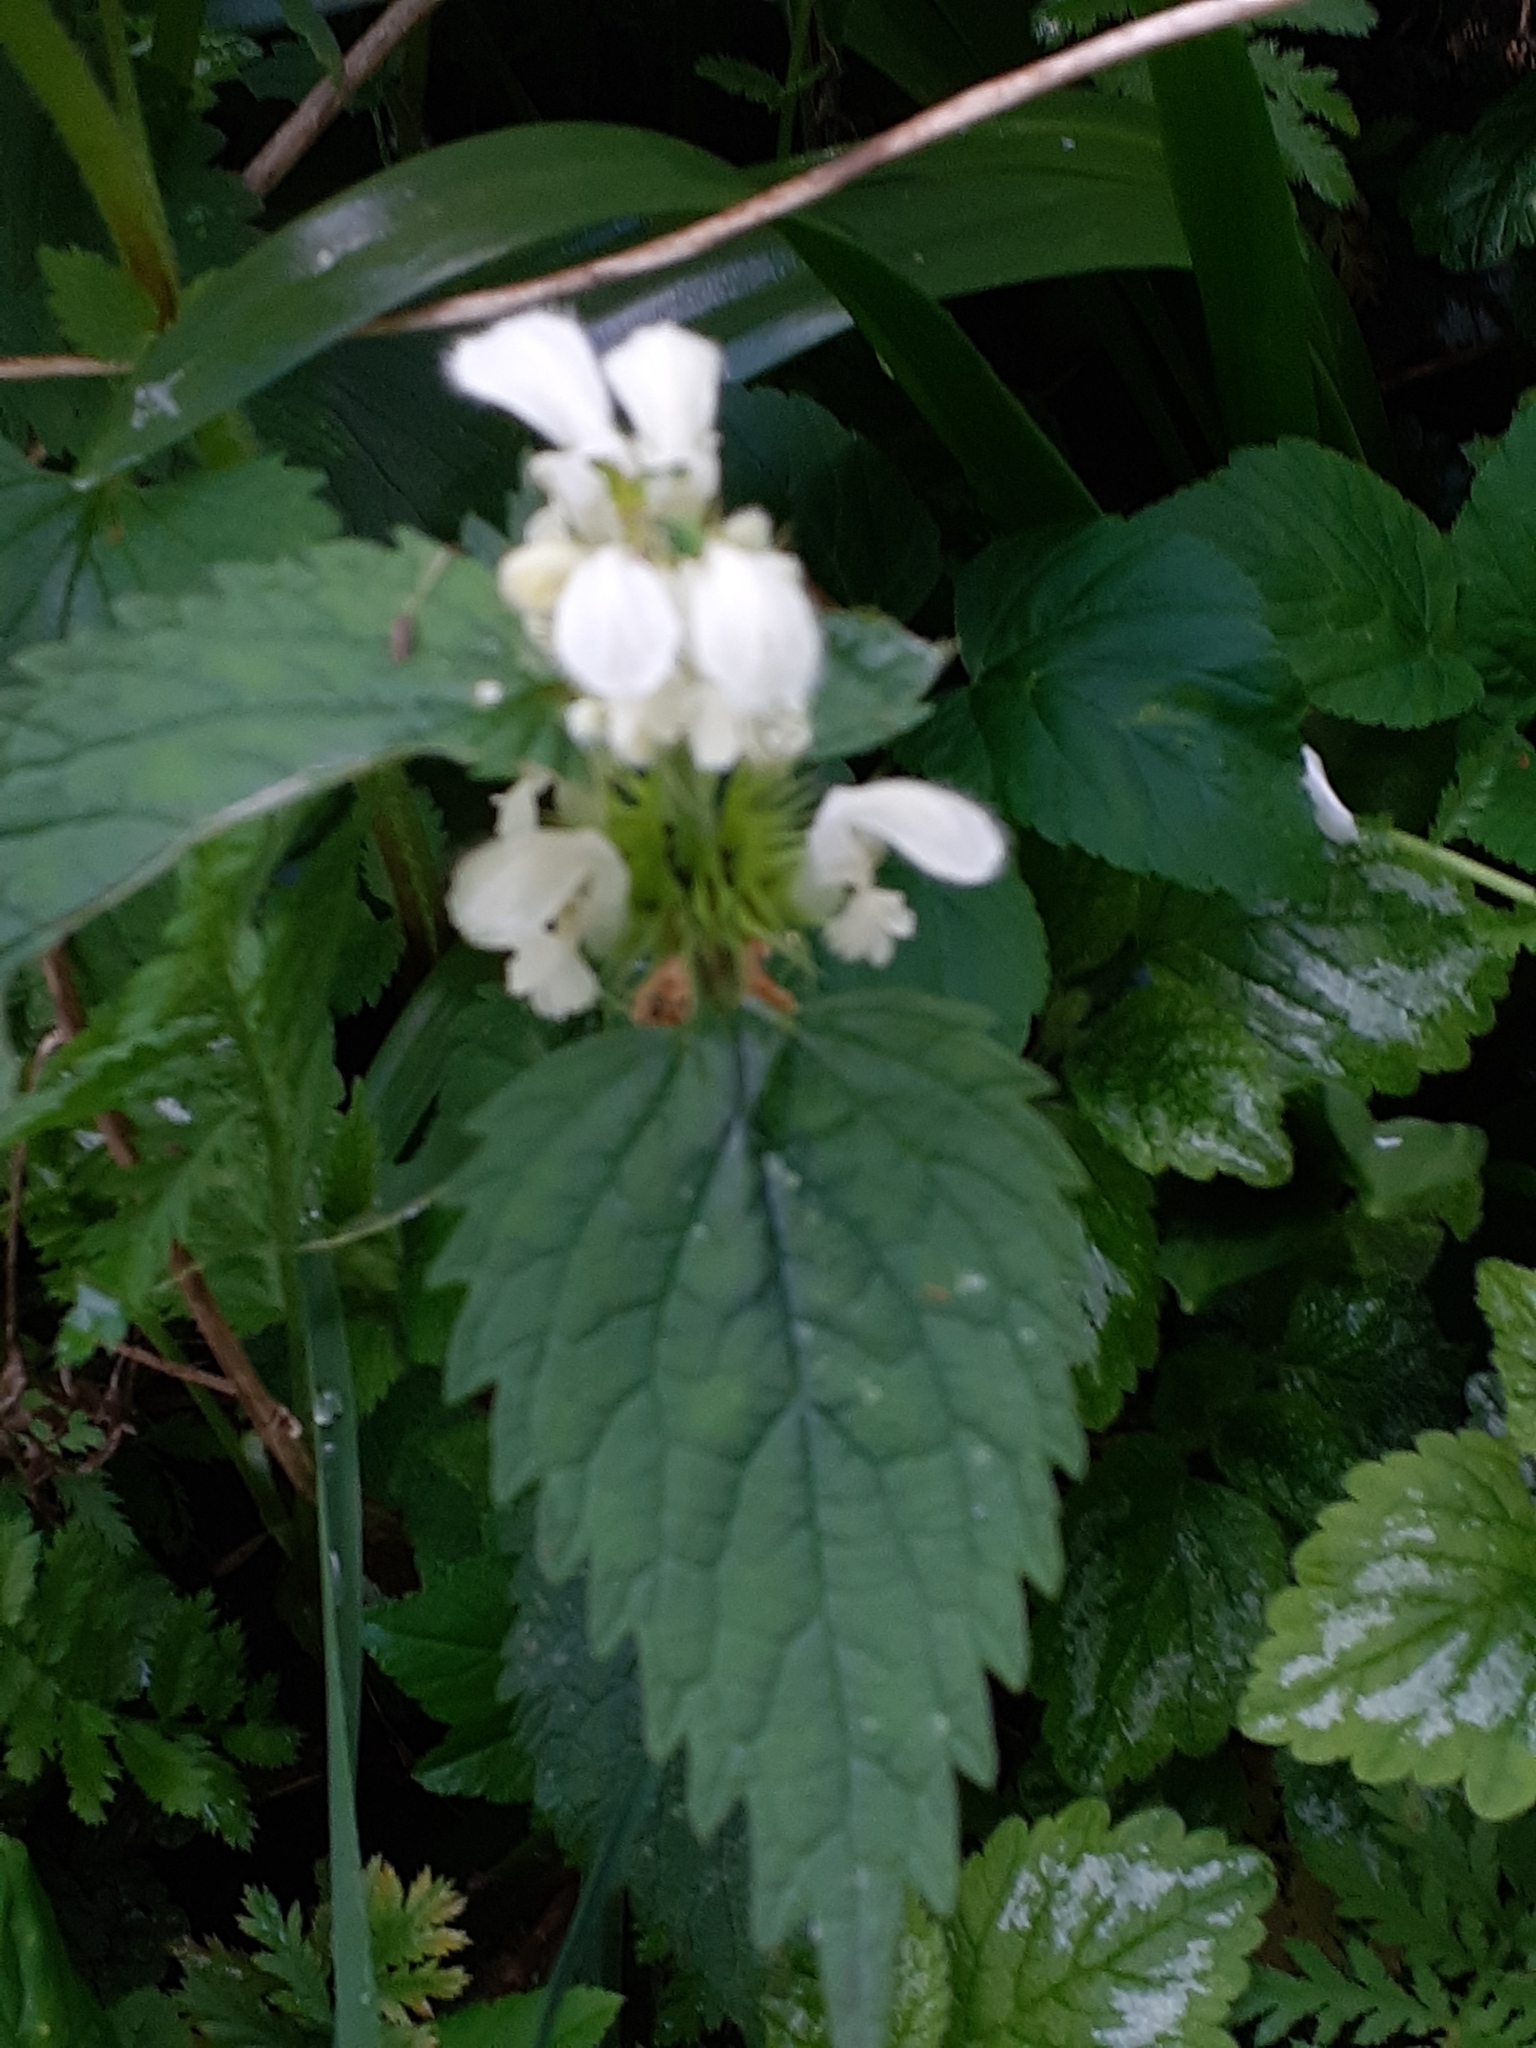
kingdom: Plantae
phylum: Tracheophyta
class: Magnoliopsida
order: Lamiales
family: Lamiaceae
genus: Lamium
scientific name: Lamium album
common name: White dead-nettle
